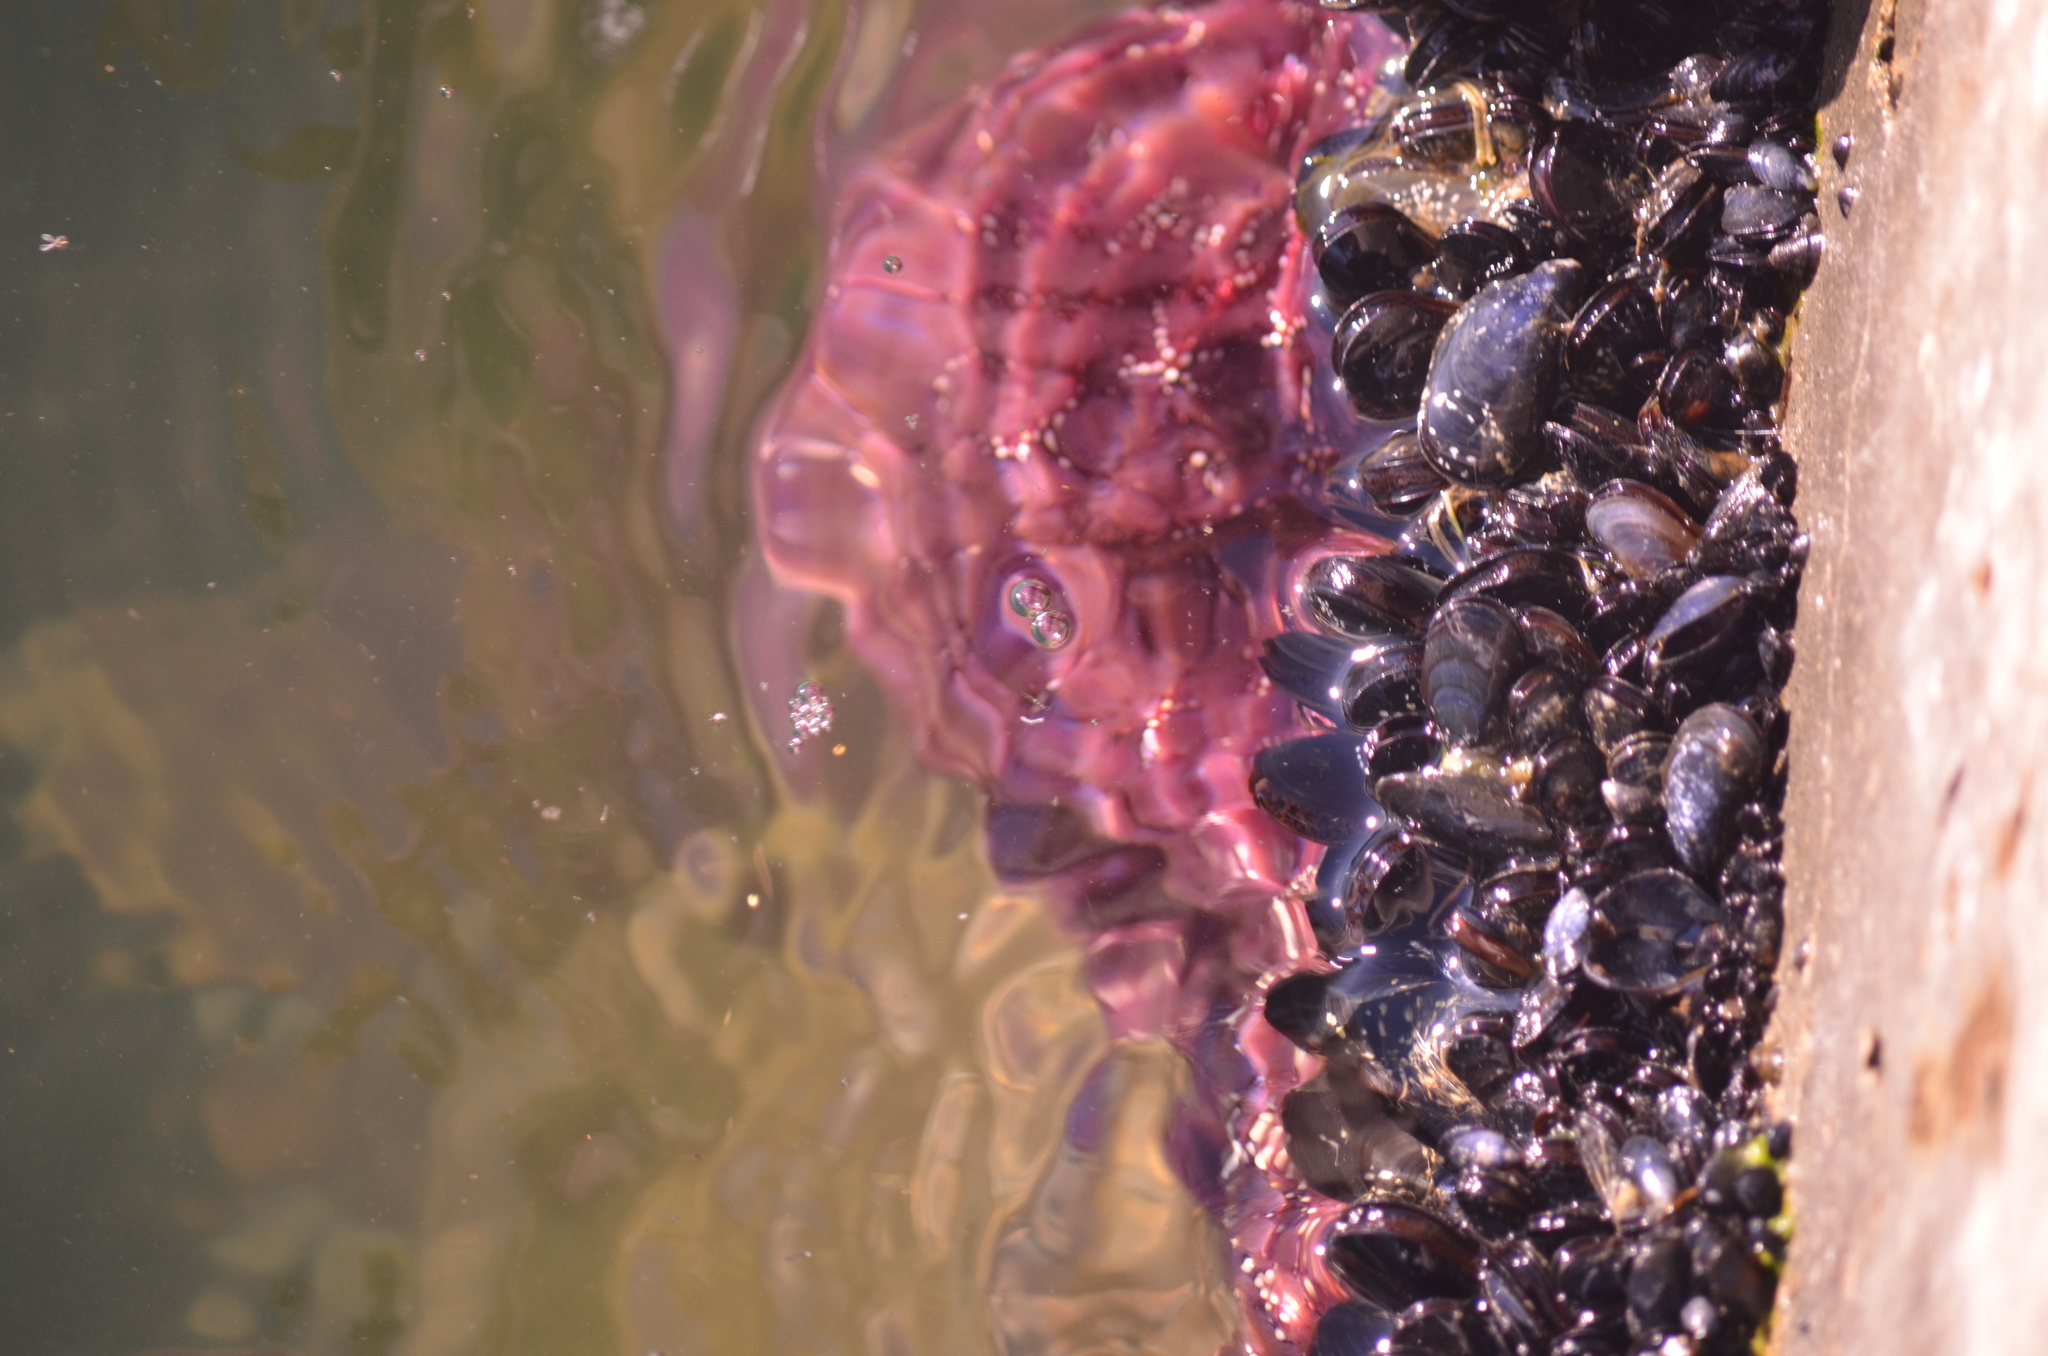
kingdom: Animalia
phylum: Echinodermata
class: Asteroidea
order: Forcipulatida
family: Asteriidae
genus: Pisaster
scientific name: Pisaster ochraceus
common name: Ochre stars
